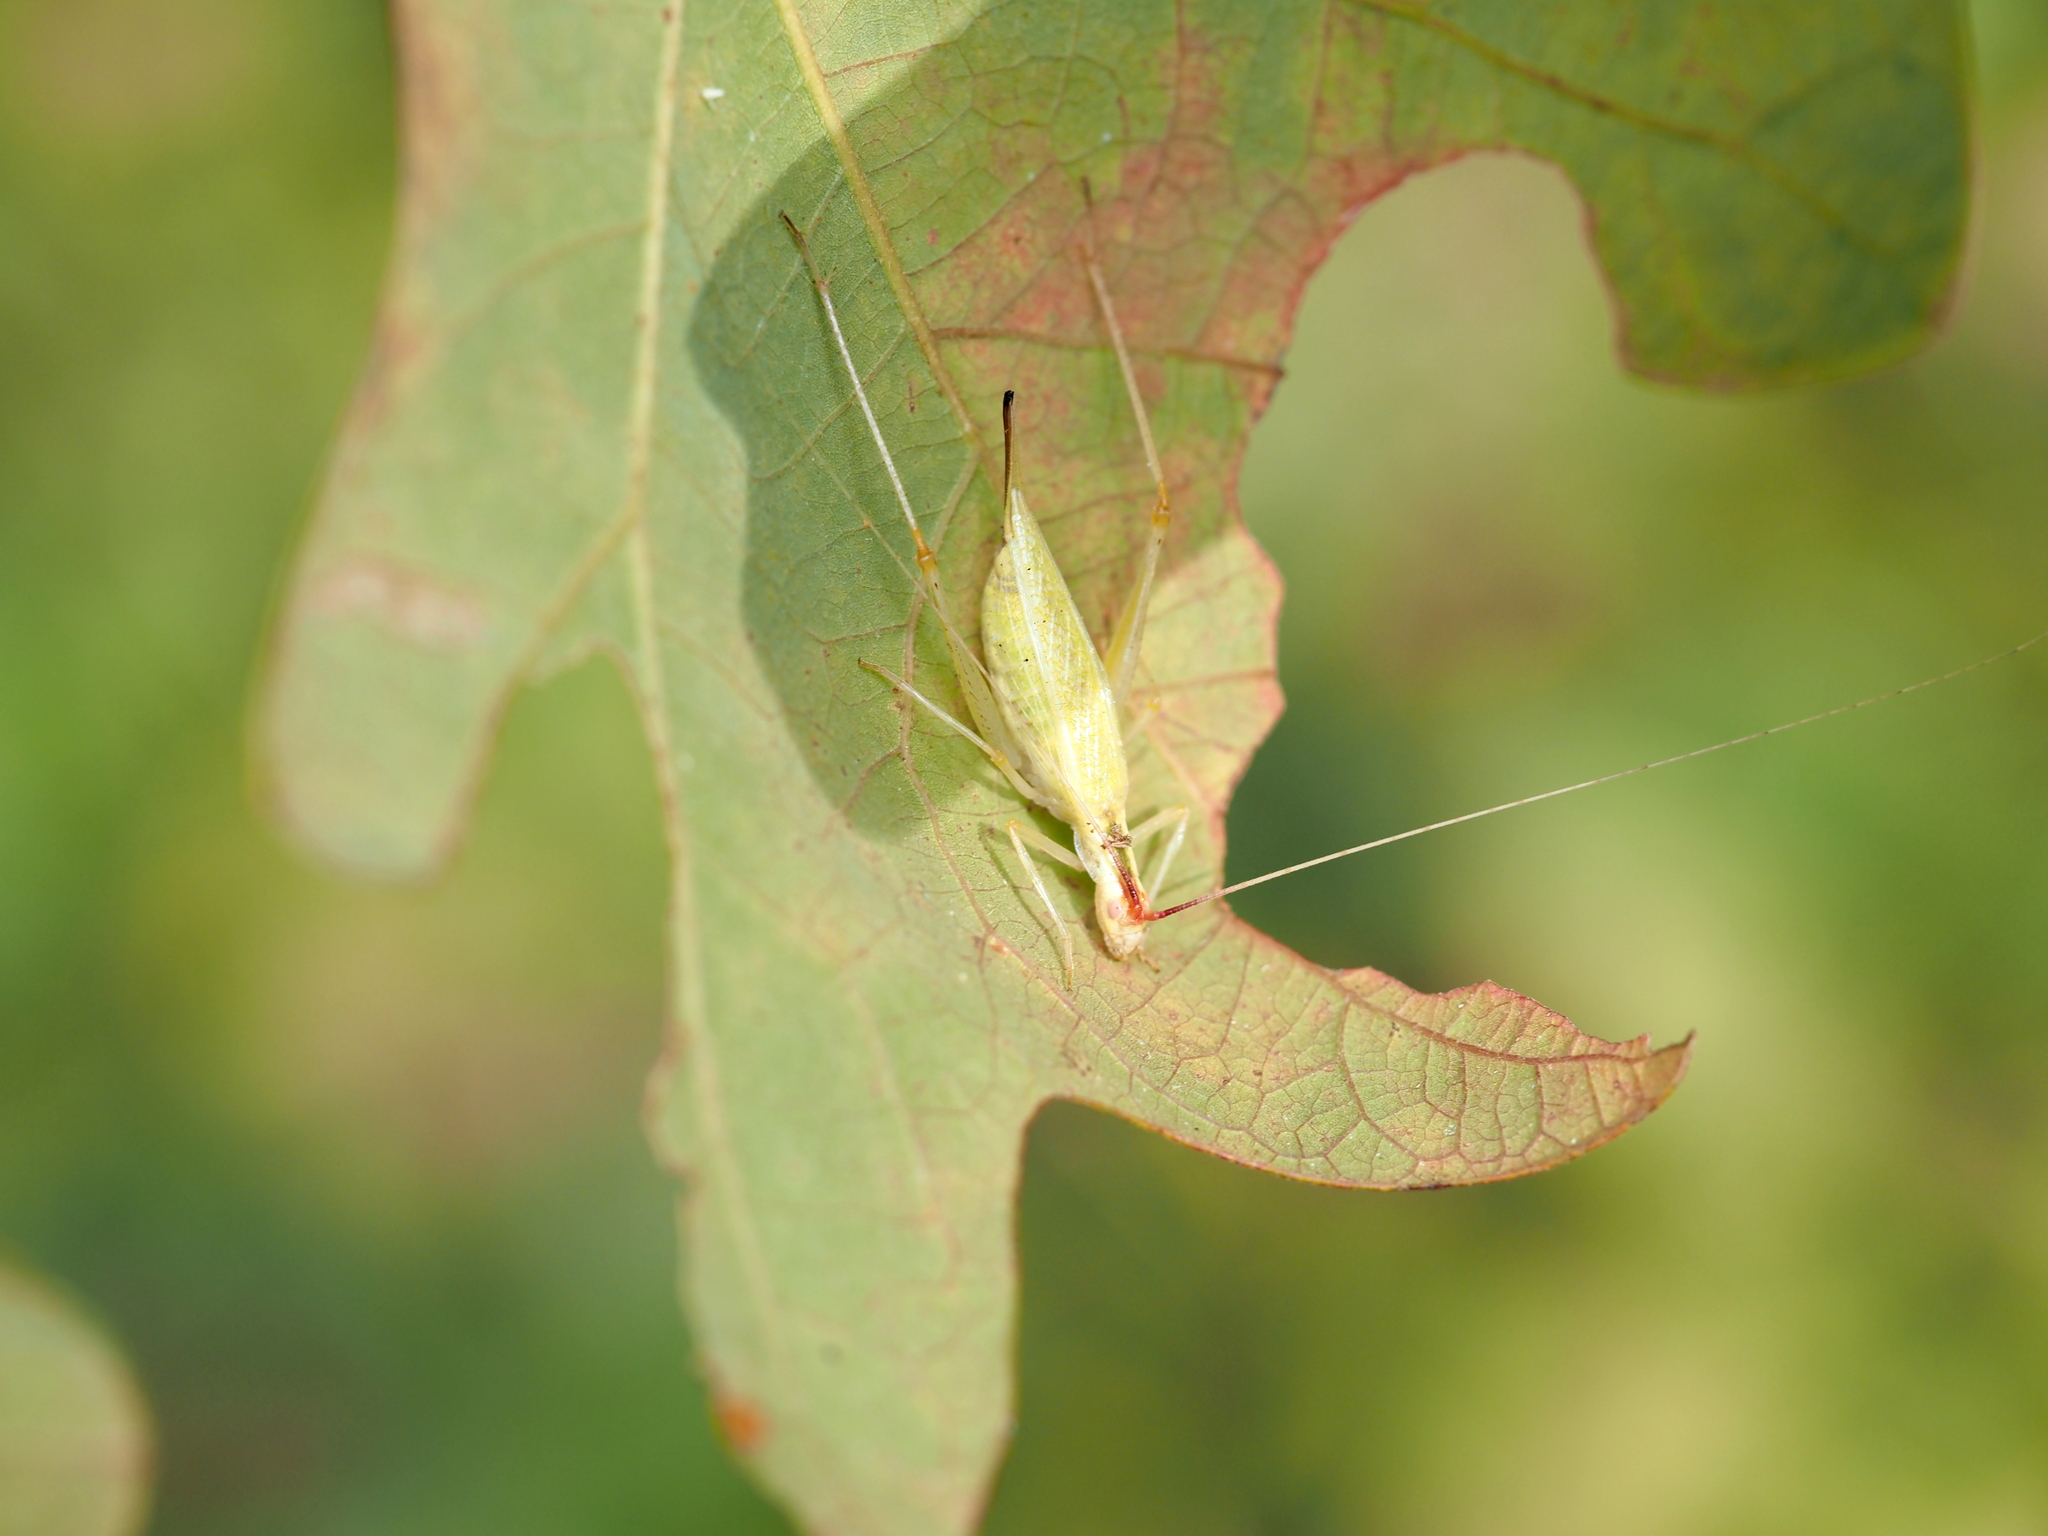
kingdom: Animalia
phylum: Arthropoda
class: Insecta
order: Orthoptera
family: Gryllidae
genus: Oecanthus
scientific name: Oecanthus latipennis
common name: Broad-winged tree cricket
